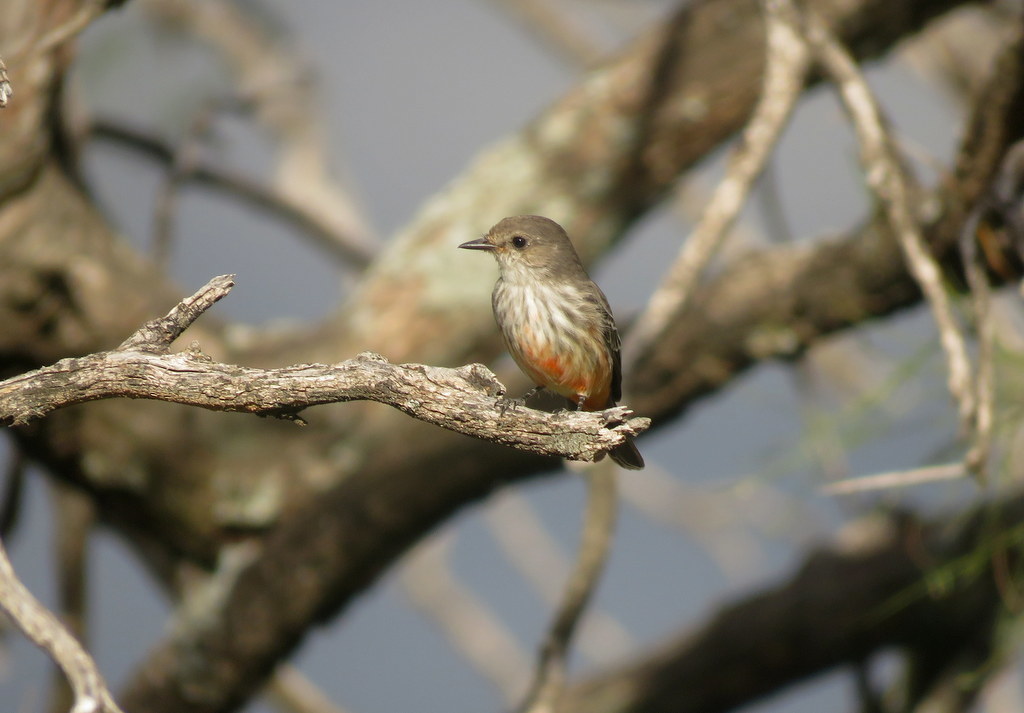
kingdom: Animalia
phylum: Chordata
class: Aves
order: Passeriformes
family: Tyrannidae
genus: Pyrocephalus
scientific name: Pyrocephalus rubinus
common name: Vermilion flycatcher
